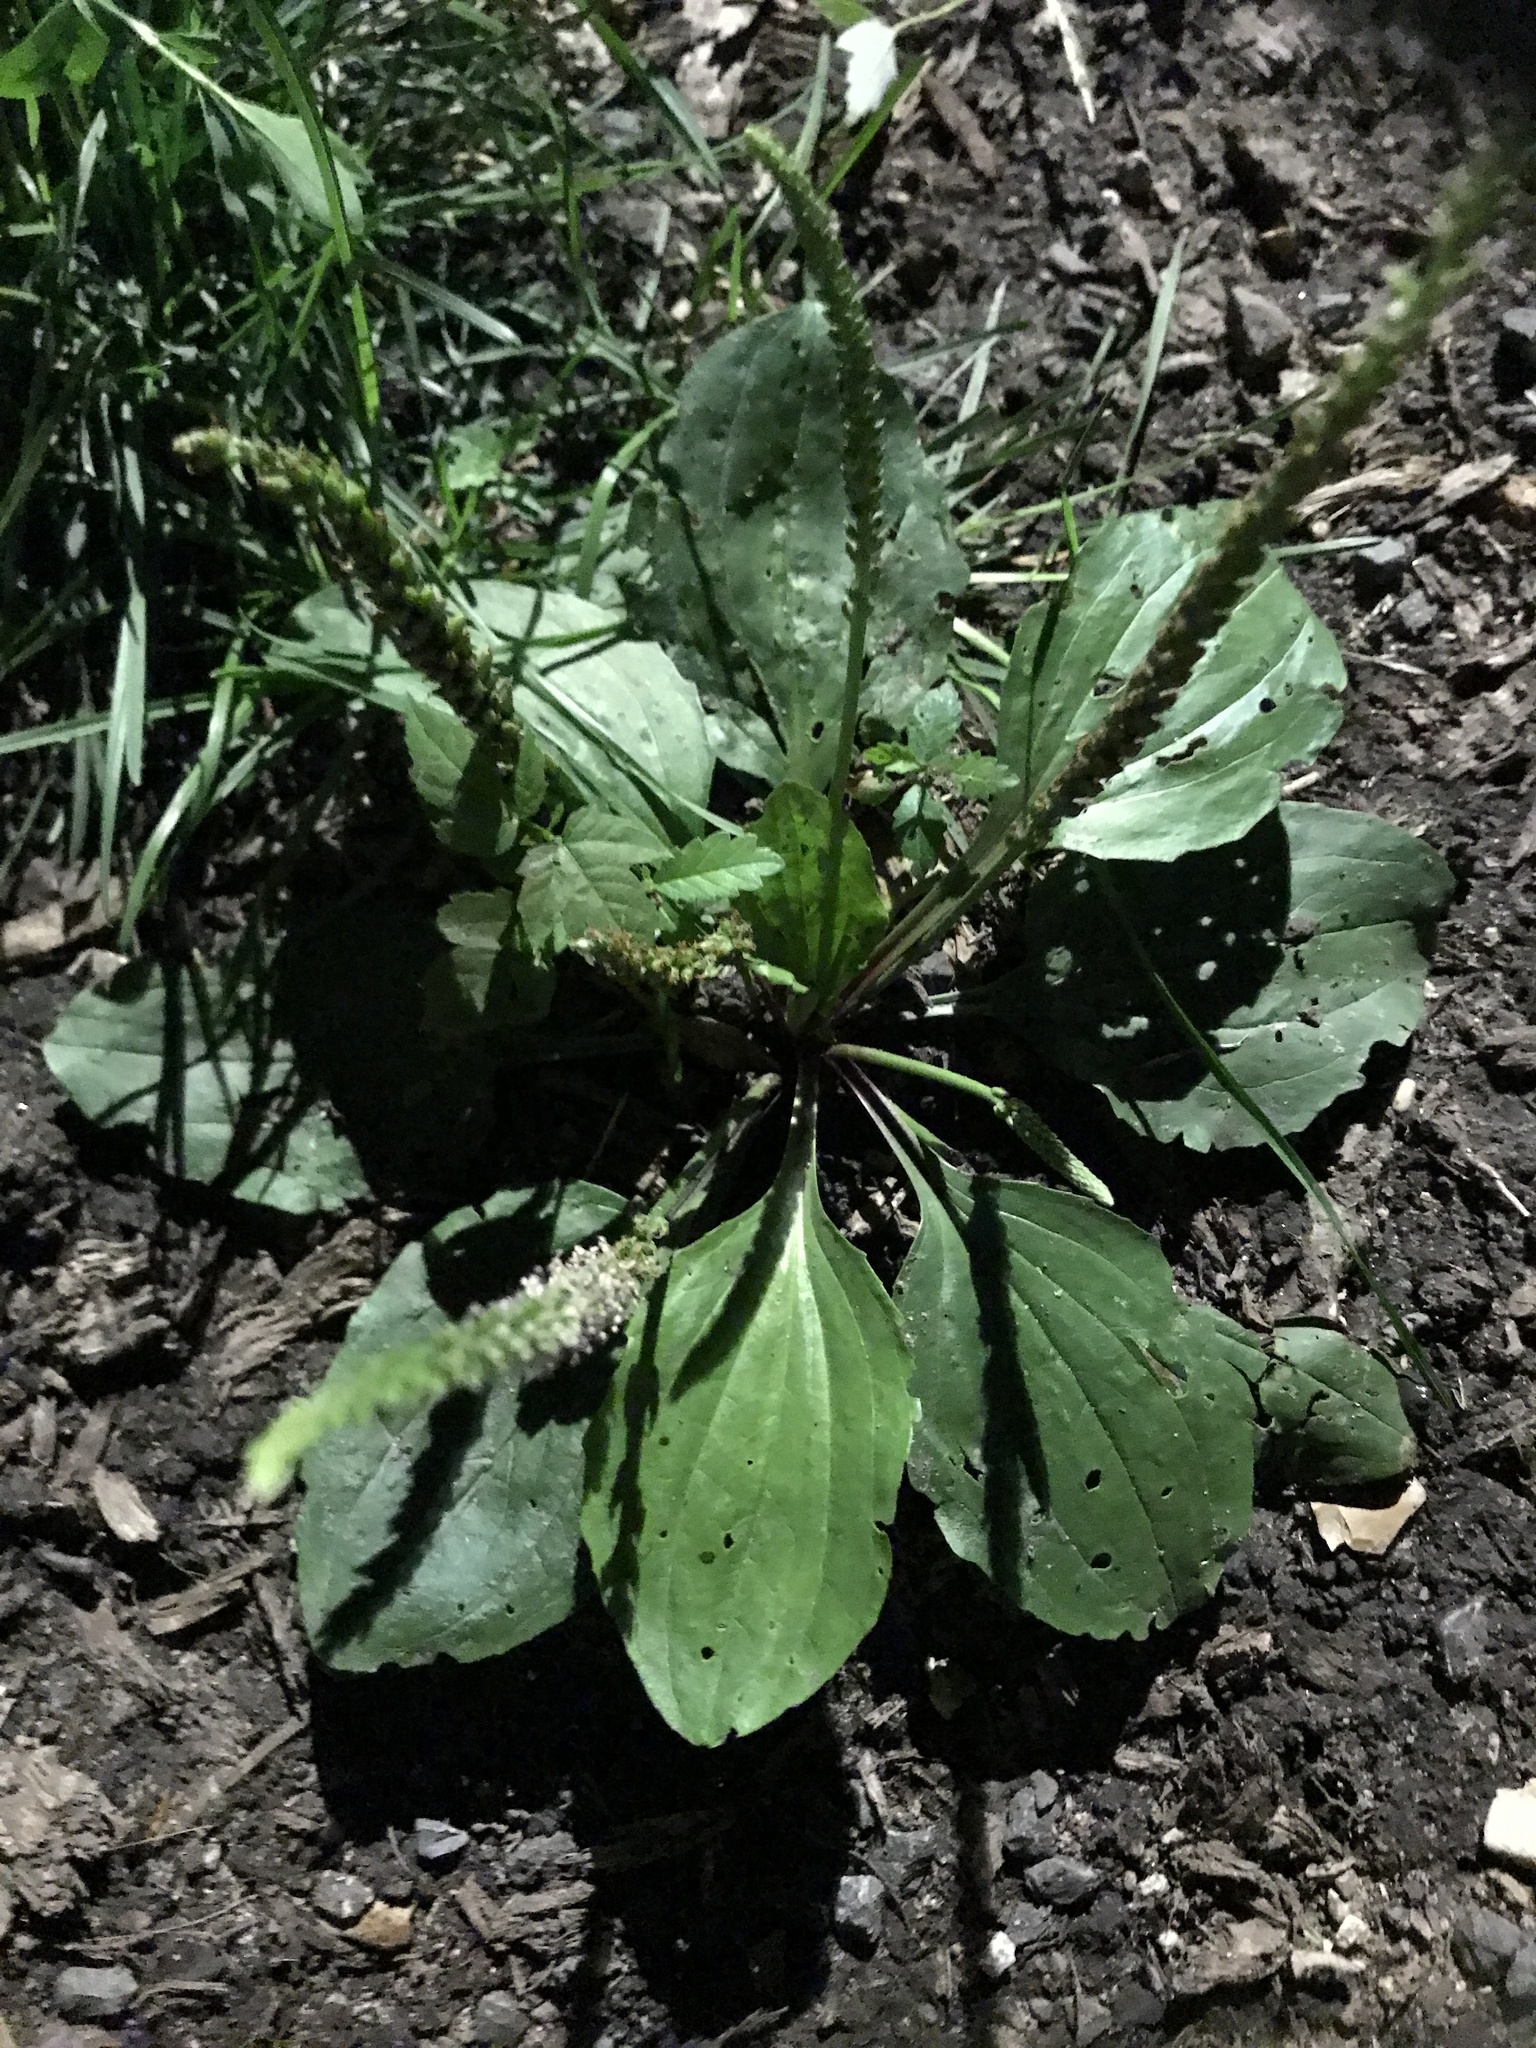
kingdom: Plantae
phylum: Tracheophyta
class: Magnoliopsida
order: Lamiales
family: Plantaginaceae
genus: Plantago
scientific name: Plantago rugelii
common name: American plantain
